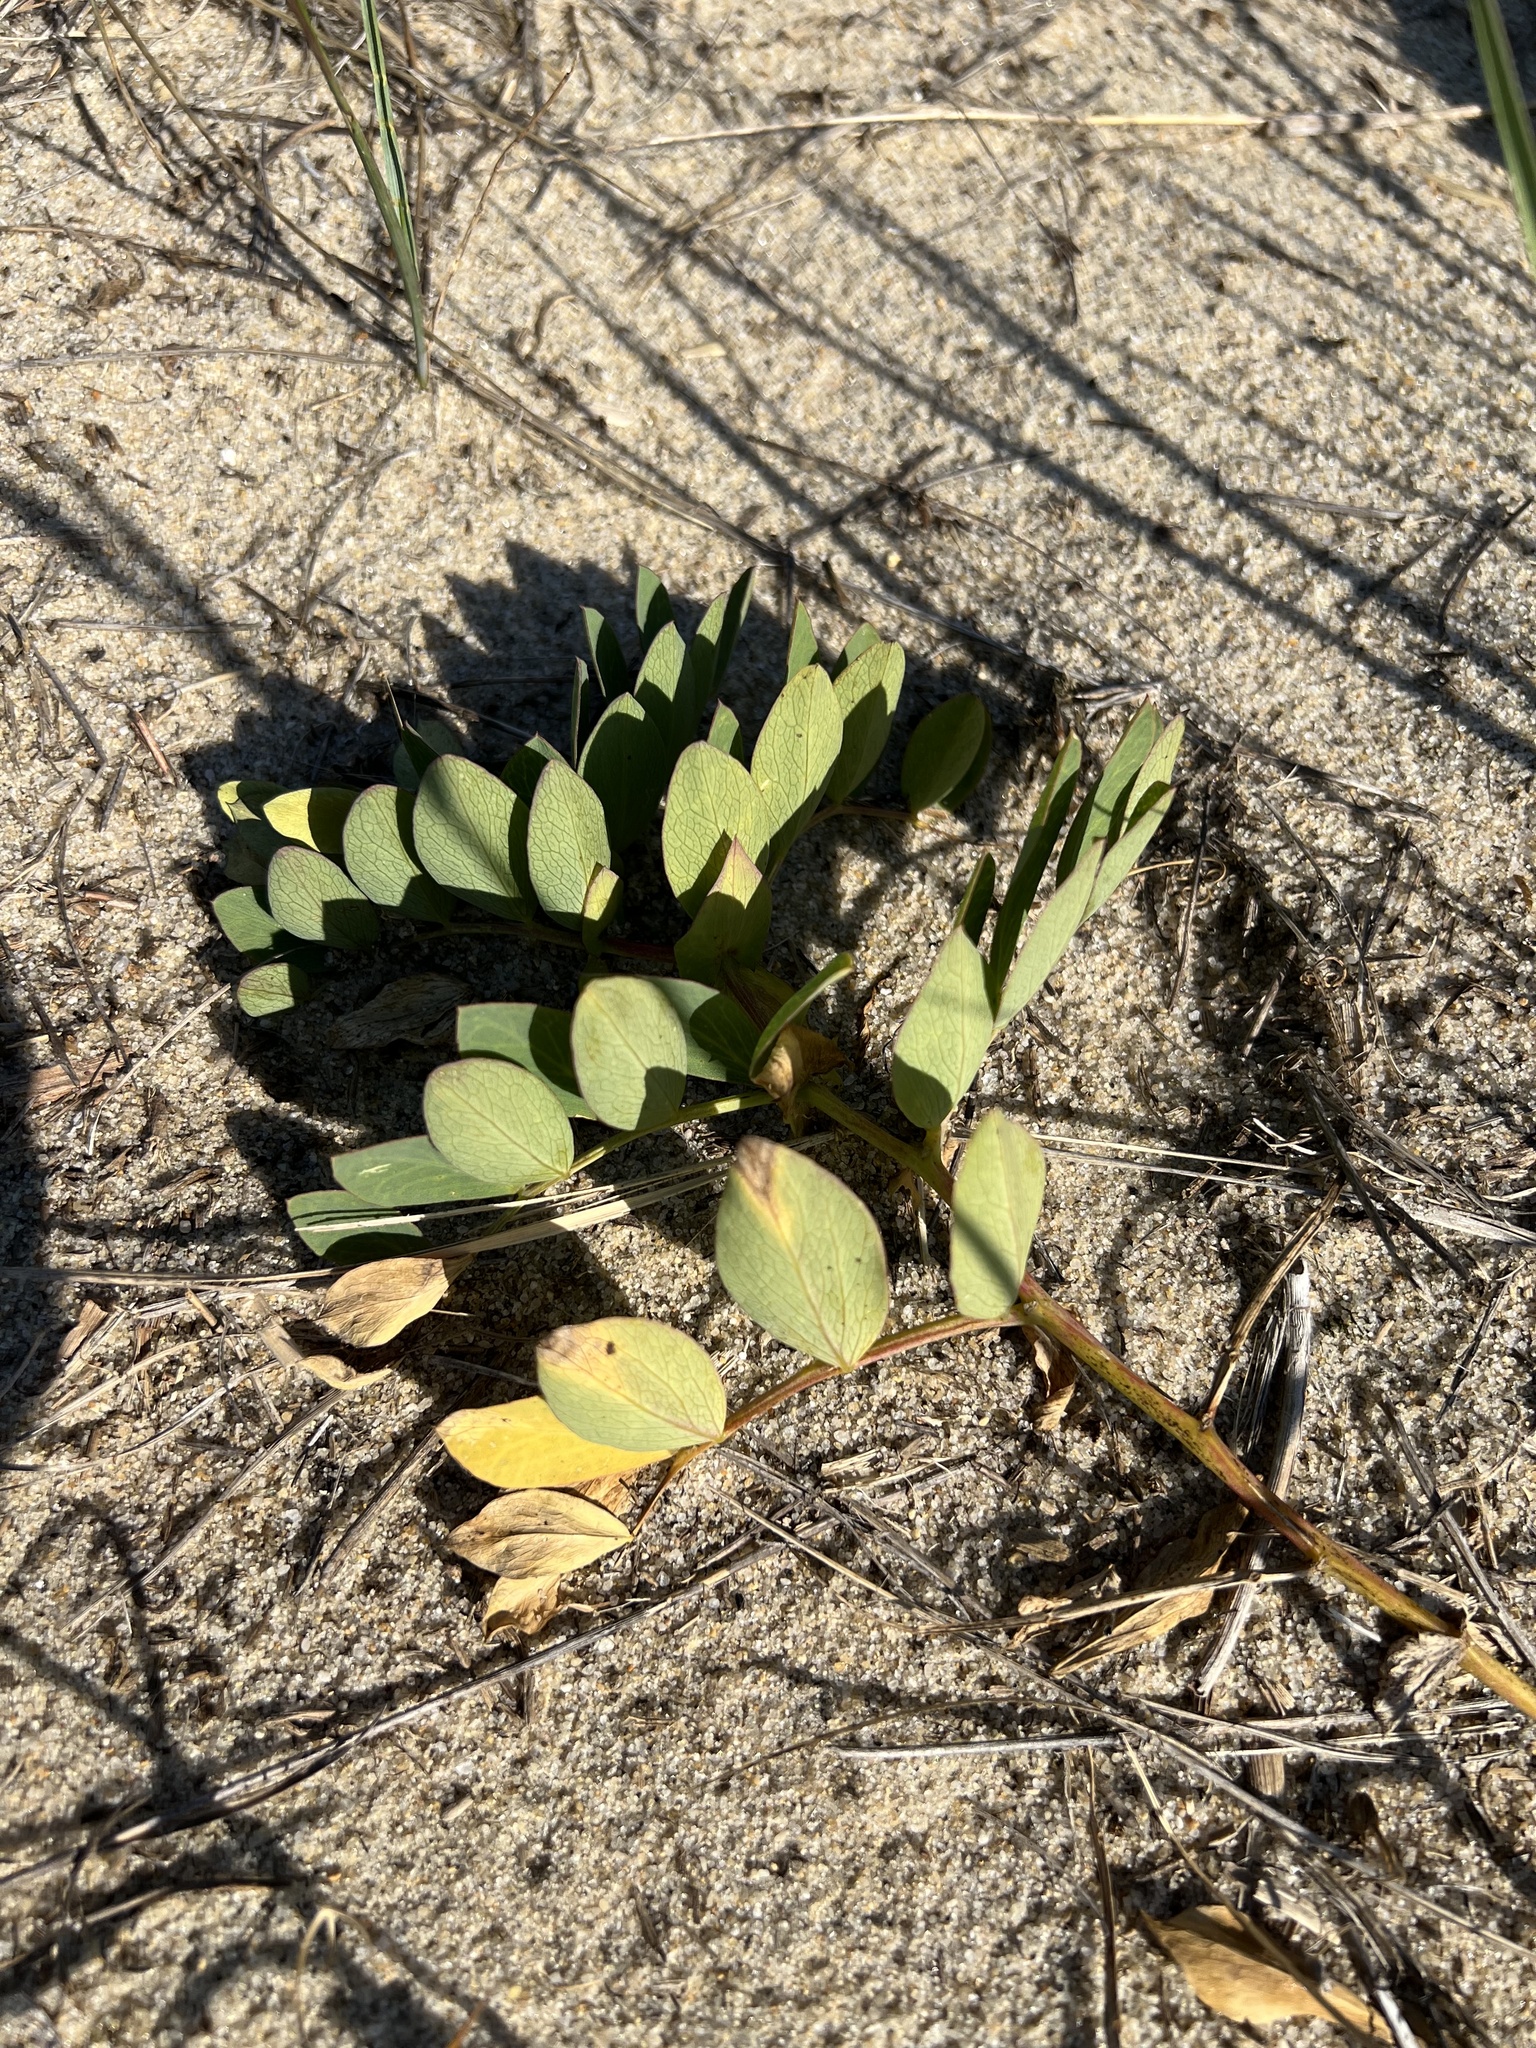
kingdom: Plantae
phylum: Tracheophyta
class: Magnoliopsida
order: Fabales
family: Fabaceae
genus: Lathyrus
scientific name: Lathyrus japonicus
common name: Sea pea
